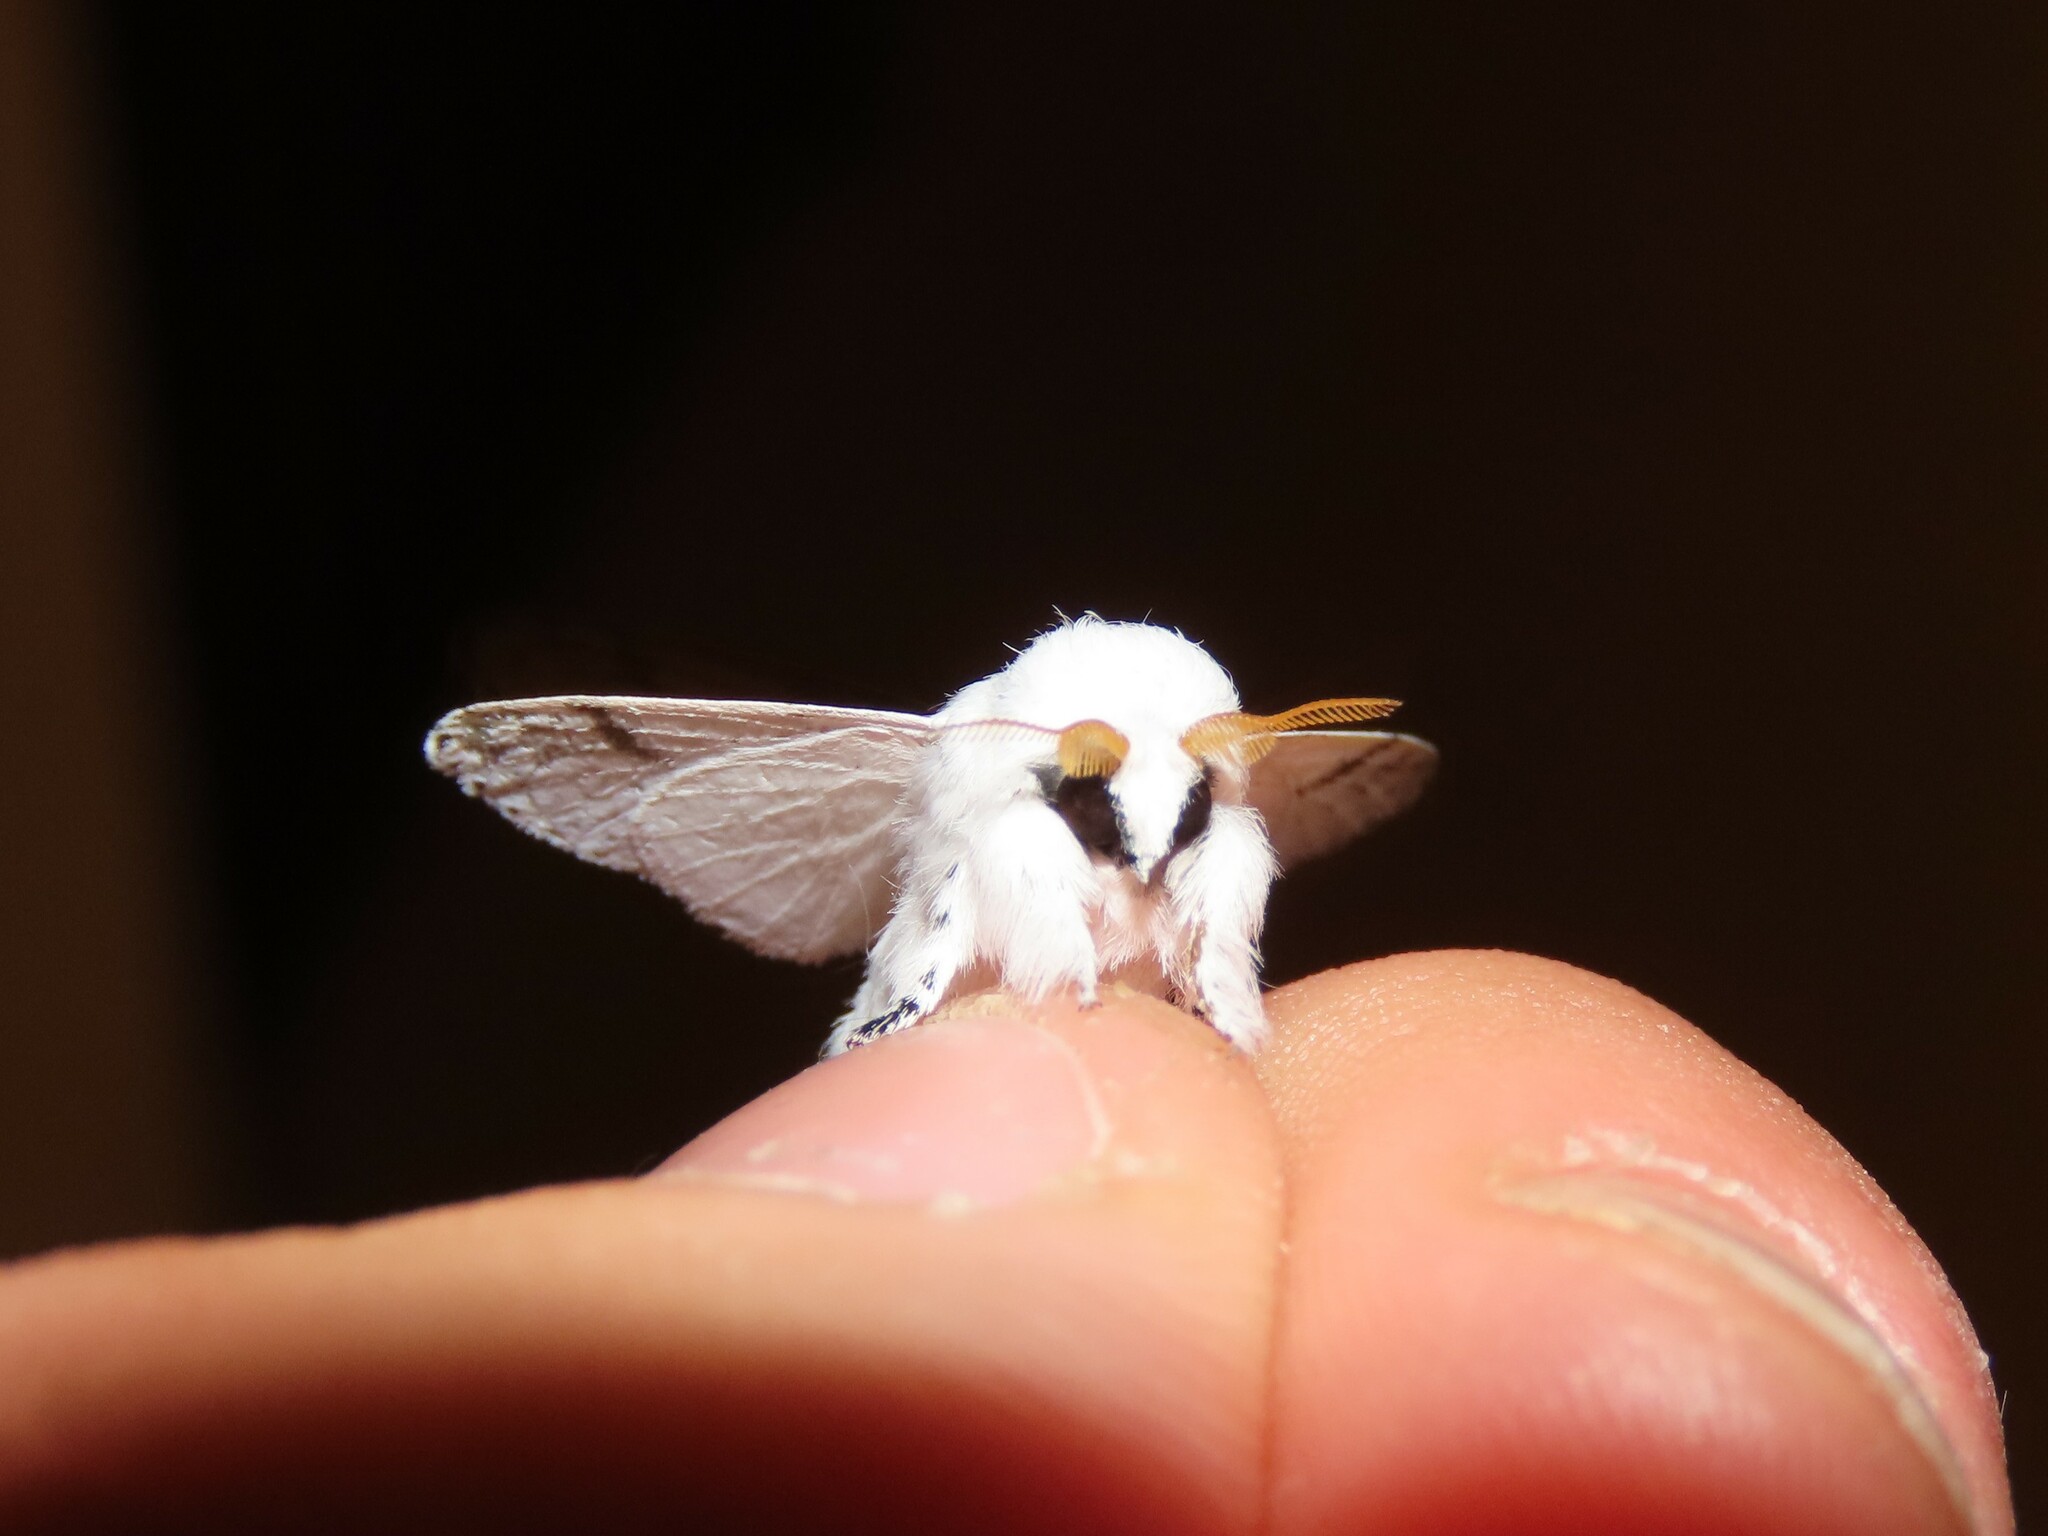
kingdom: Animalia
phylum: Arthropoda
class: Insecta
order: Lepidoptera
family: Lasiocampidae
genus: Artace
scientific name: Artace cribrarius
